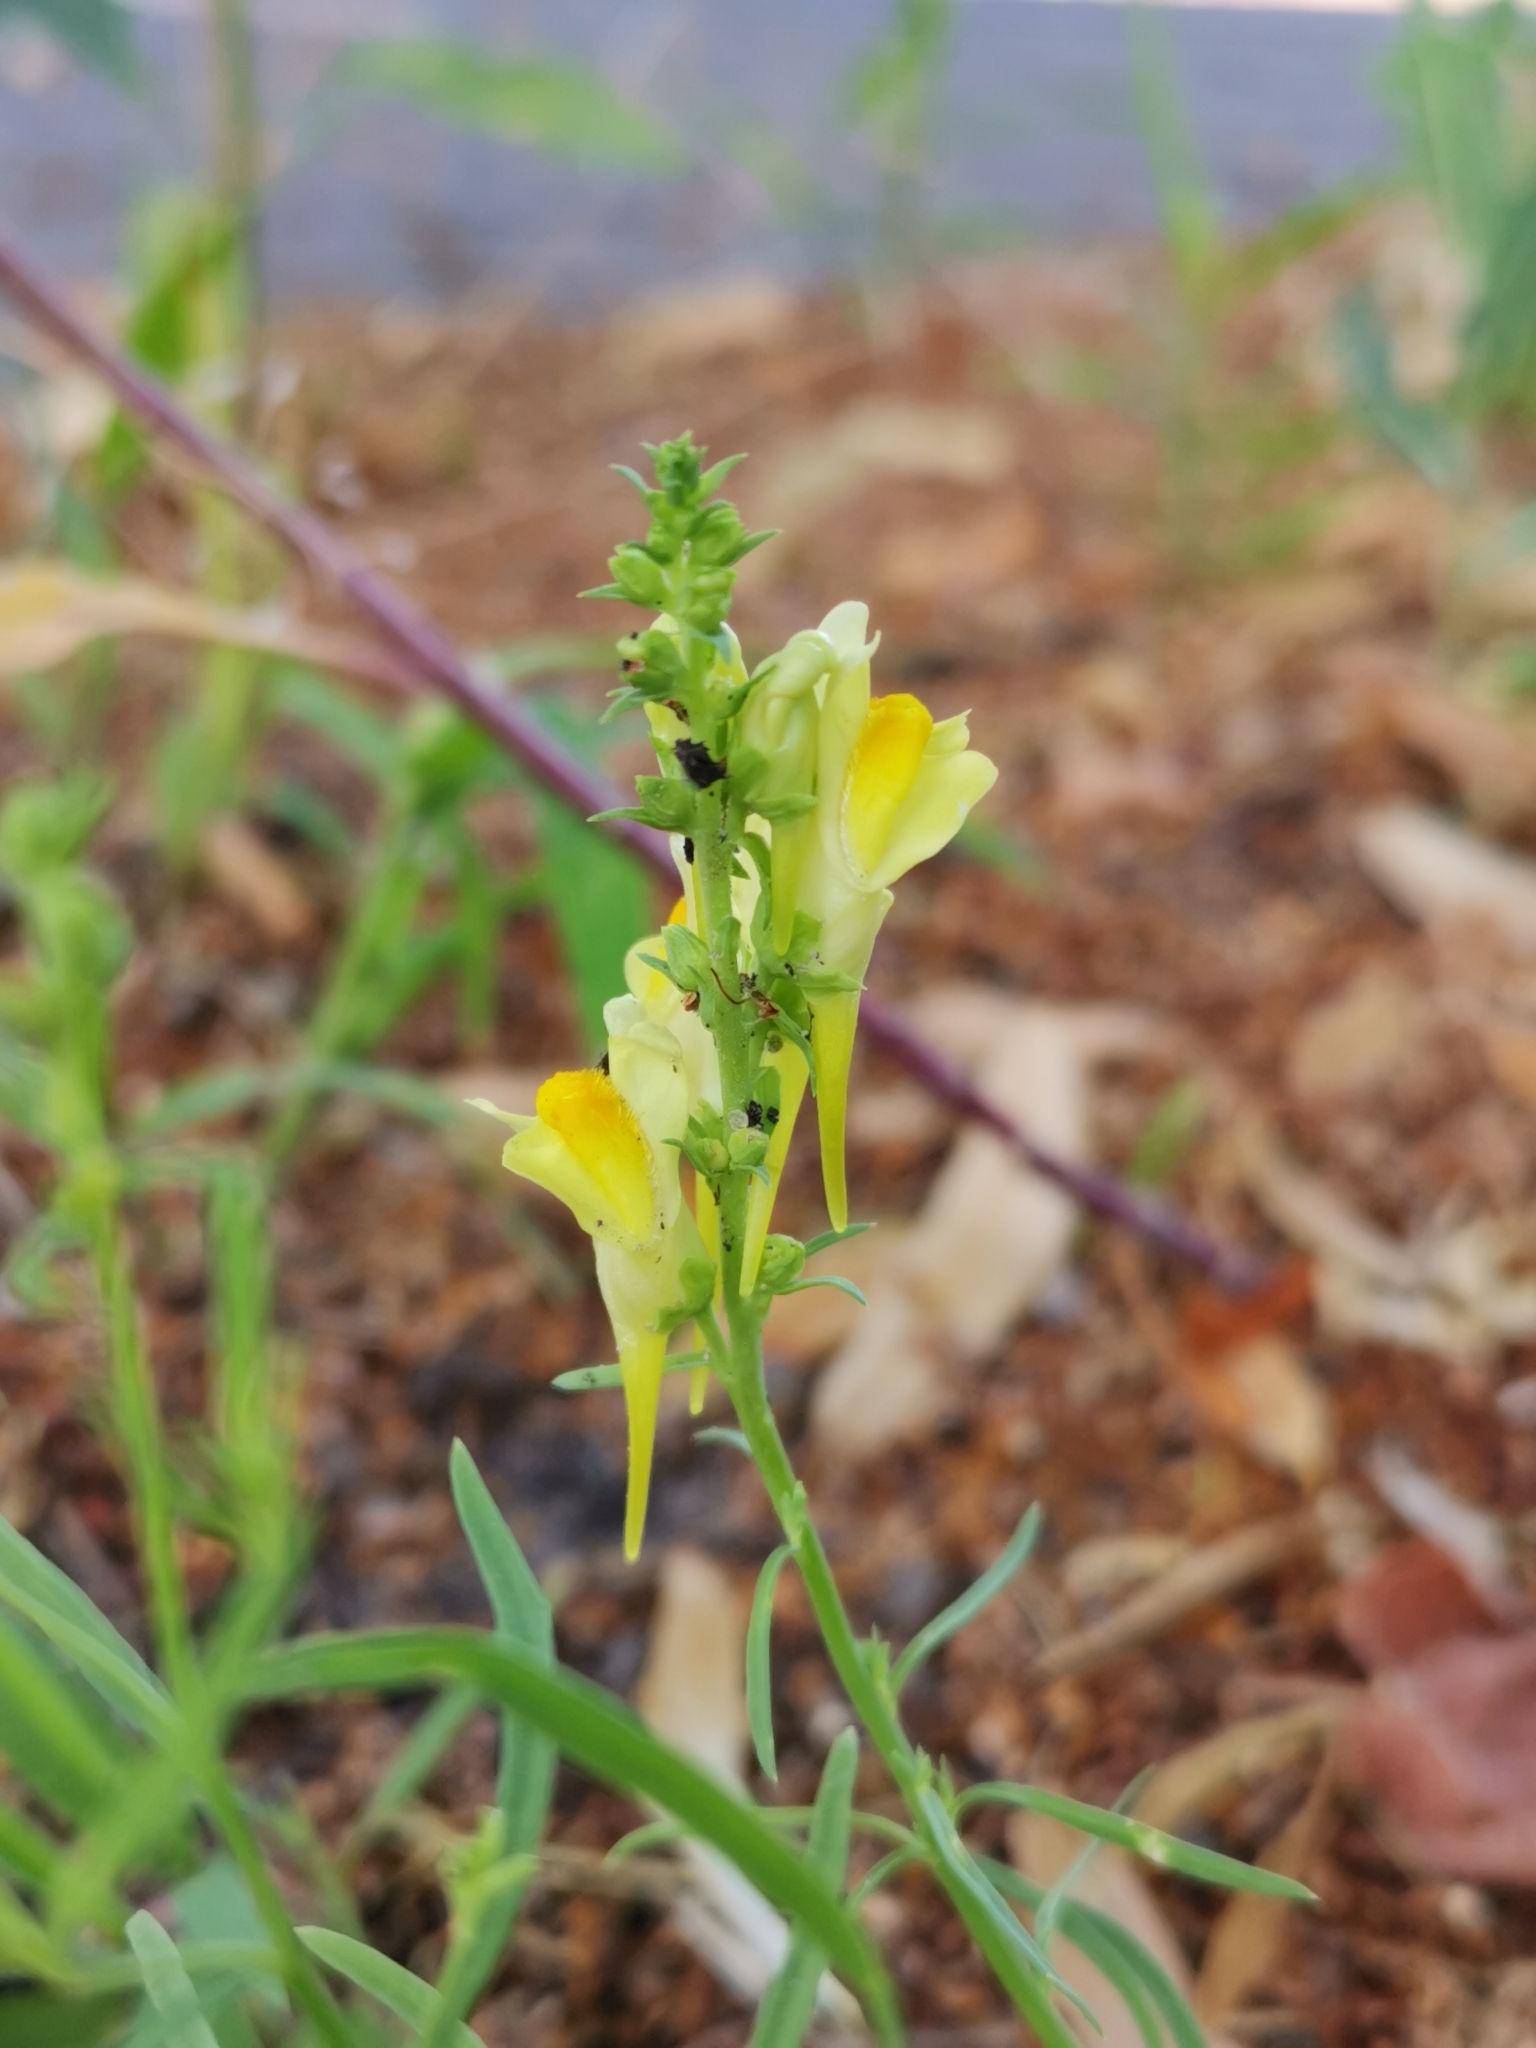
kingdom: Plantae
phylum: Tracheophyta
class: Magnoliopsida
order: Lamiales
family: Plantaginaceae
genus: Linaria
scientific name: Linaria vulgaris
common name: Butter and eggs
